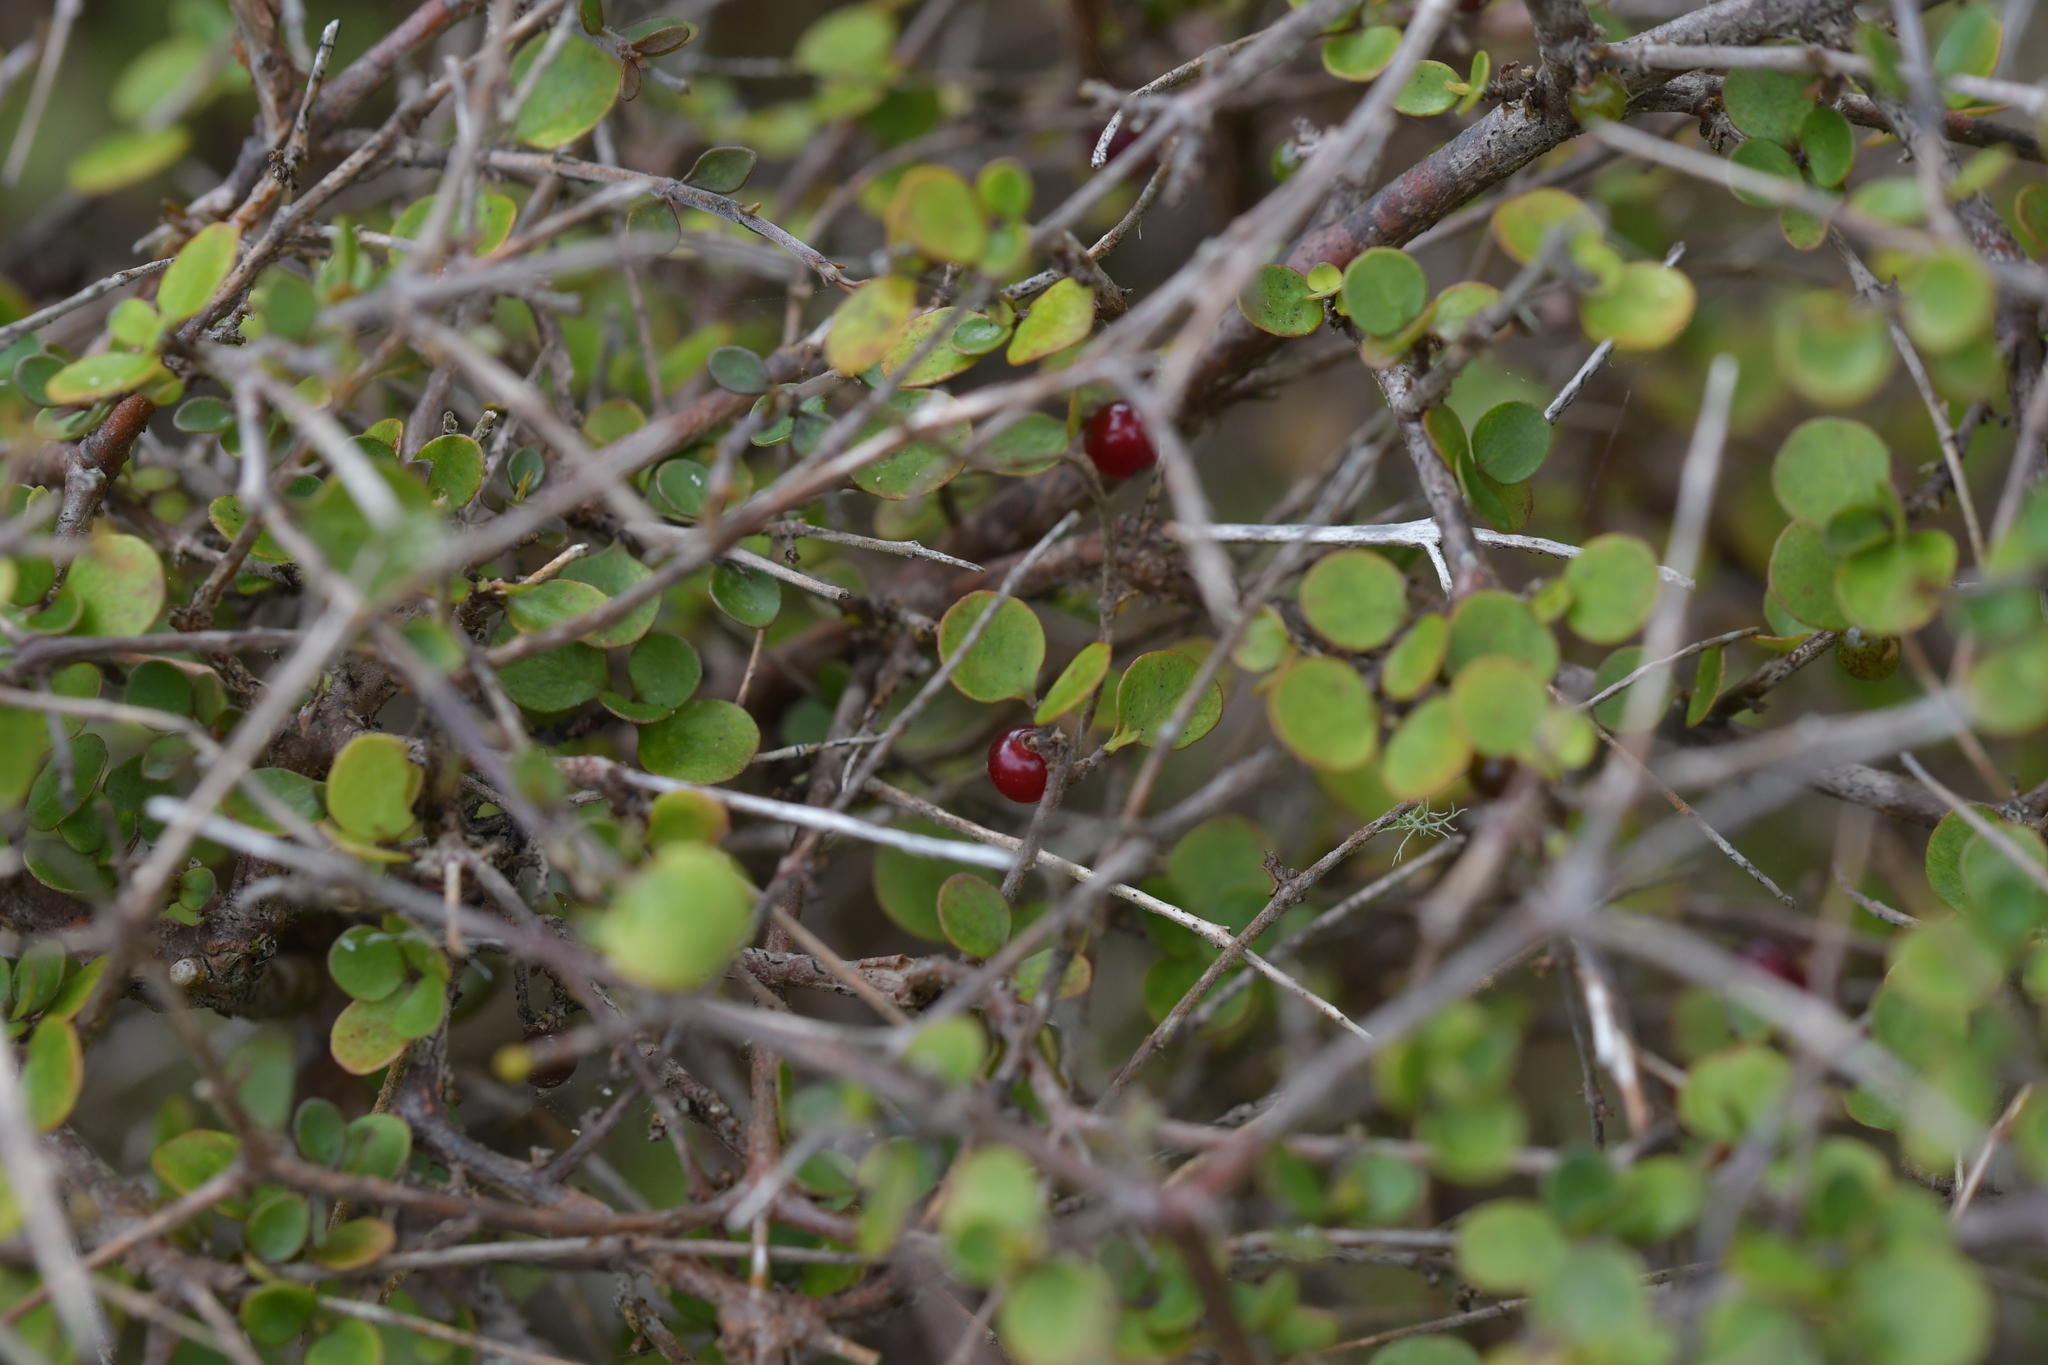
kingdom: Plantae
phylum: Tracheophyta
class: Magnoliopsida
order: Gentianales
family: Rubiaceae
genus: Coprosma
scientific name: Coprosma rhamnoides
